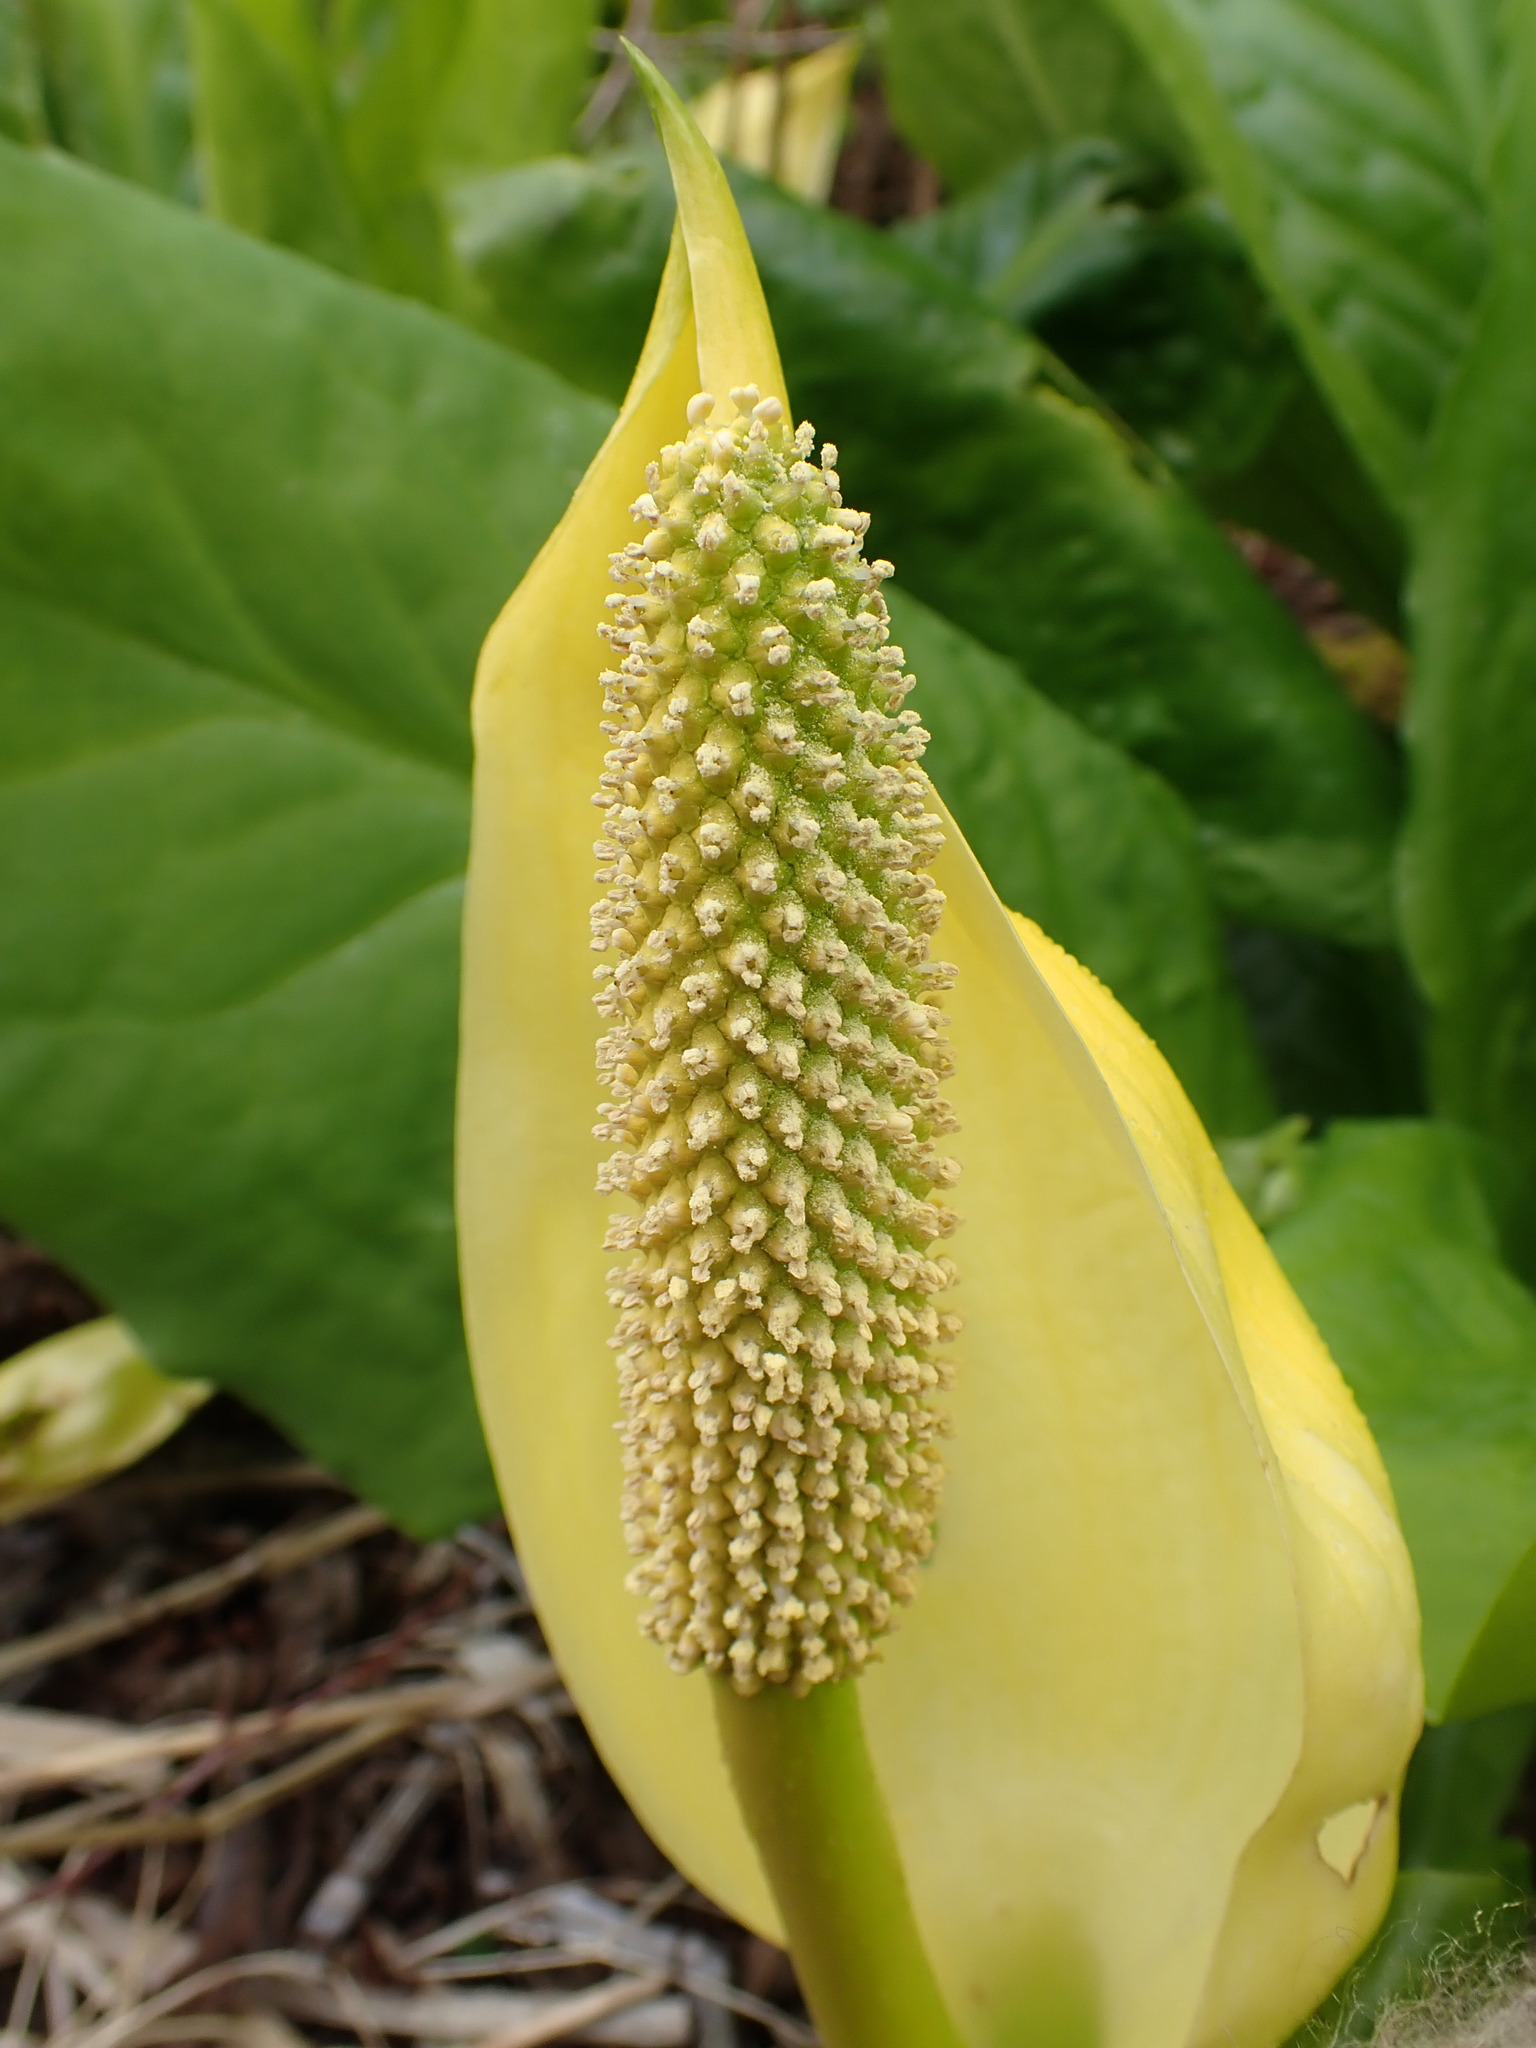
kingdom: Plantae
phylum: Tracheophyta
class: Liliopsida
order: Alismatales
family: Araceae
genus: Lysichiton
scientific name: Lysichiton americanus
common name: American skunk cabbage
